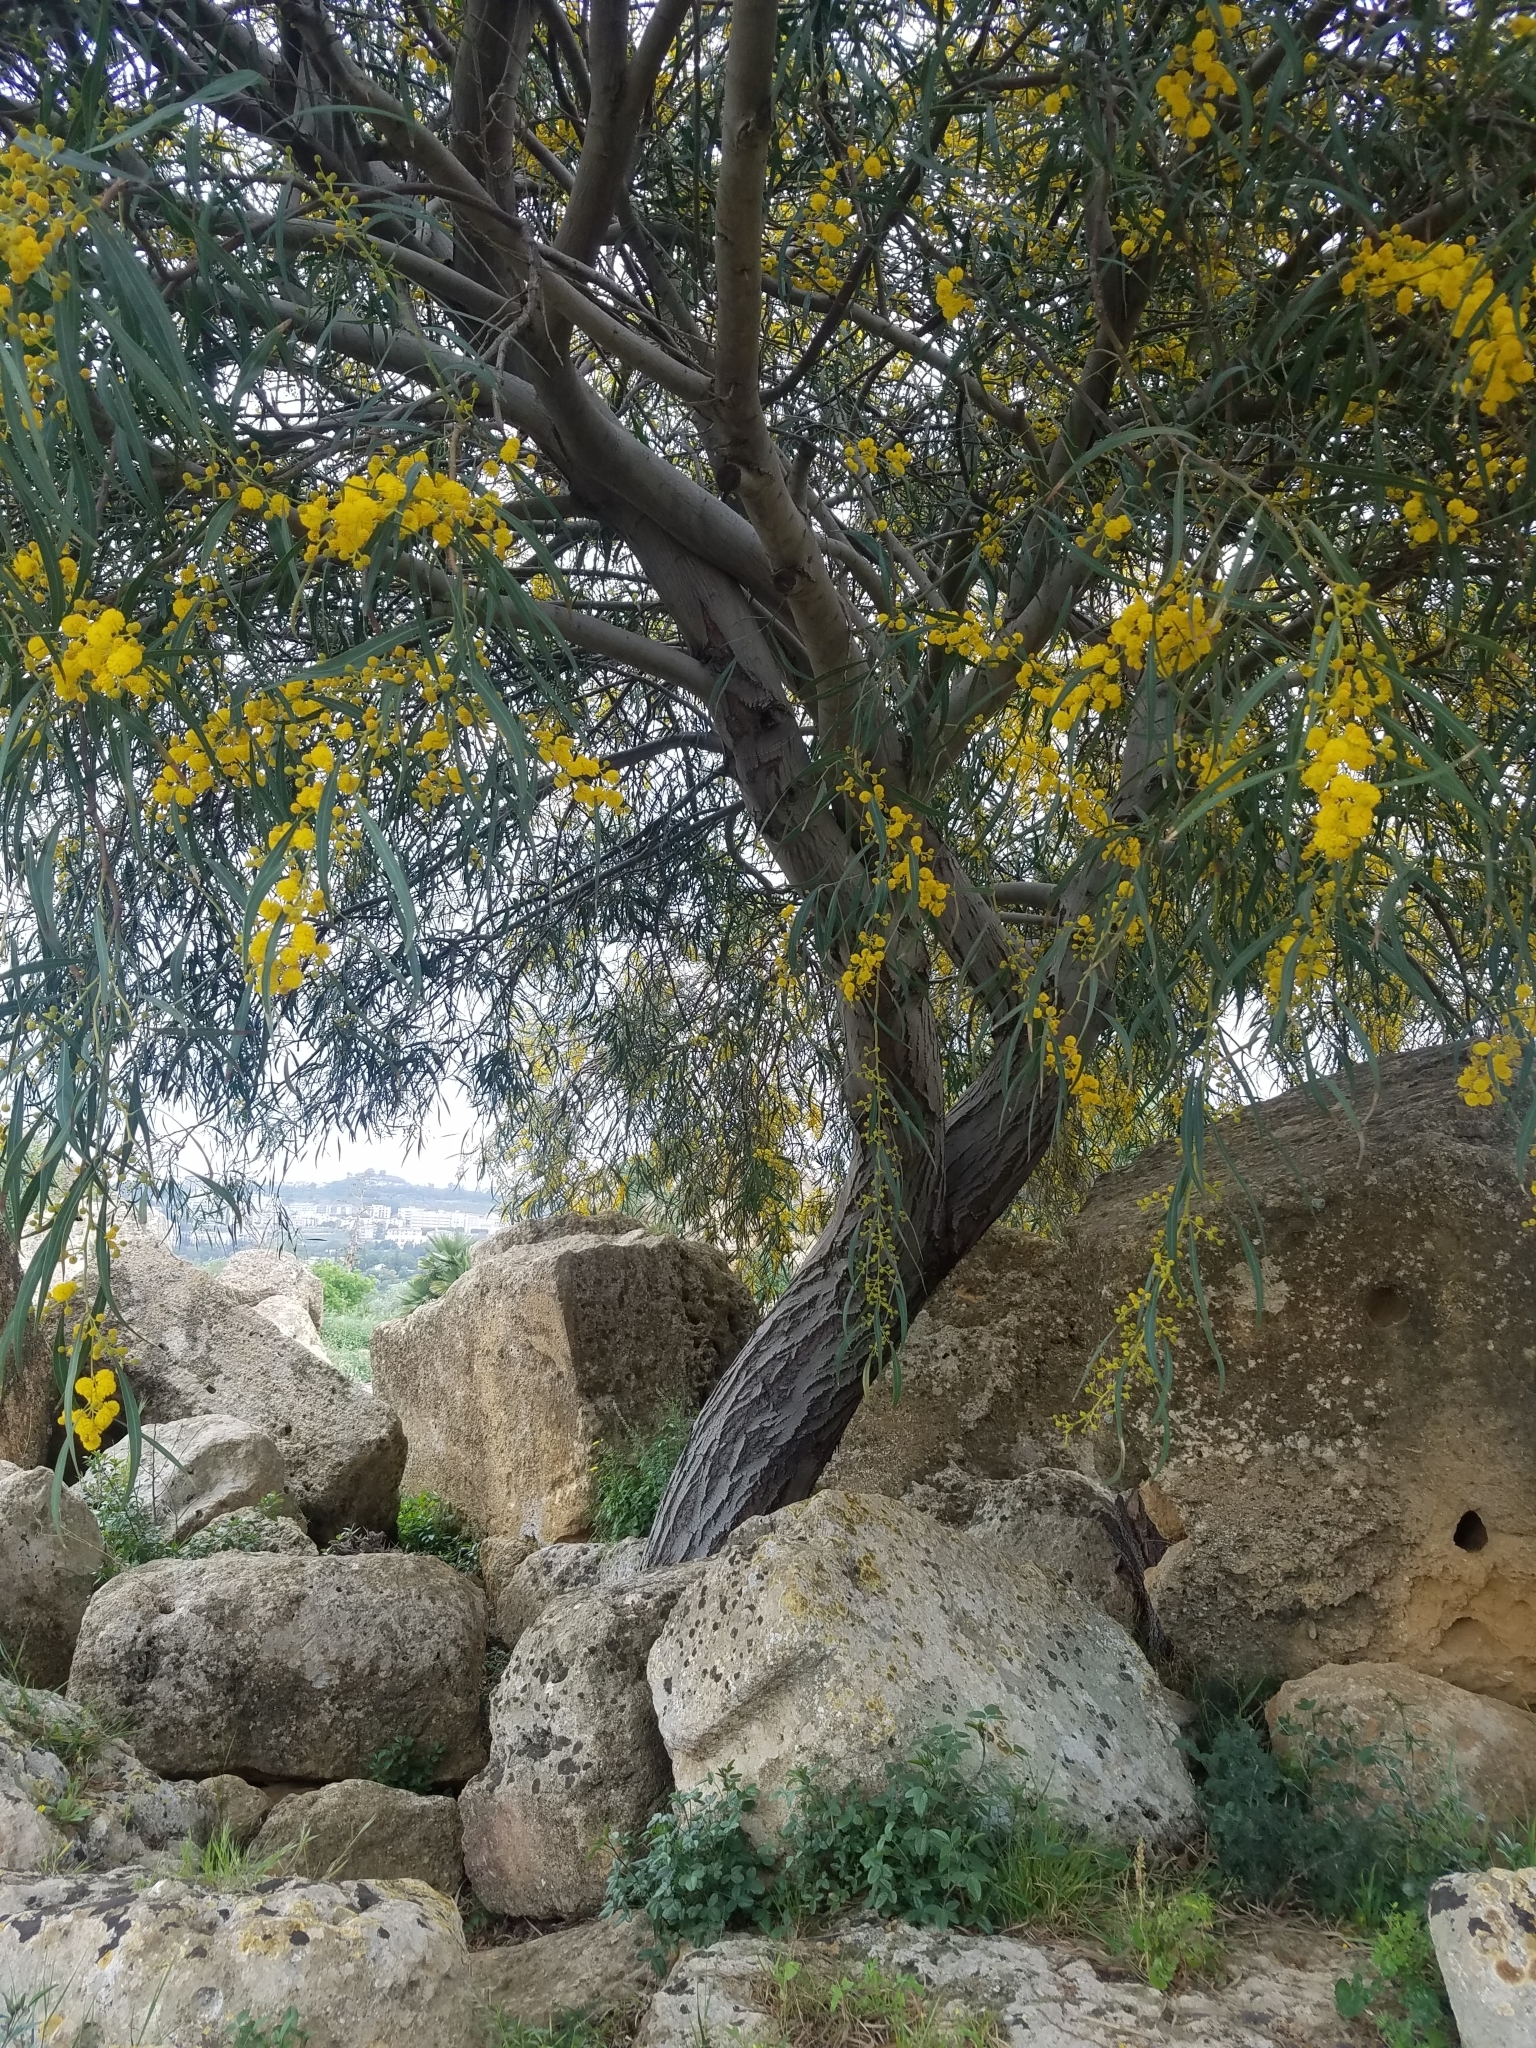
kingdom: Plantae
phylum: Tracheophyta
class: Magnoliopsida
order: Fabales
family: Fabaceae
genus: Acacia
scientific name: Acacia saligna
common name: Orange wattle
